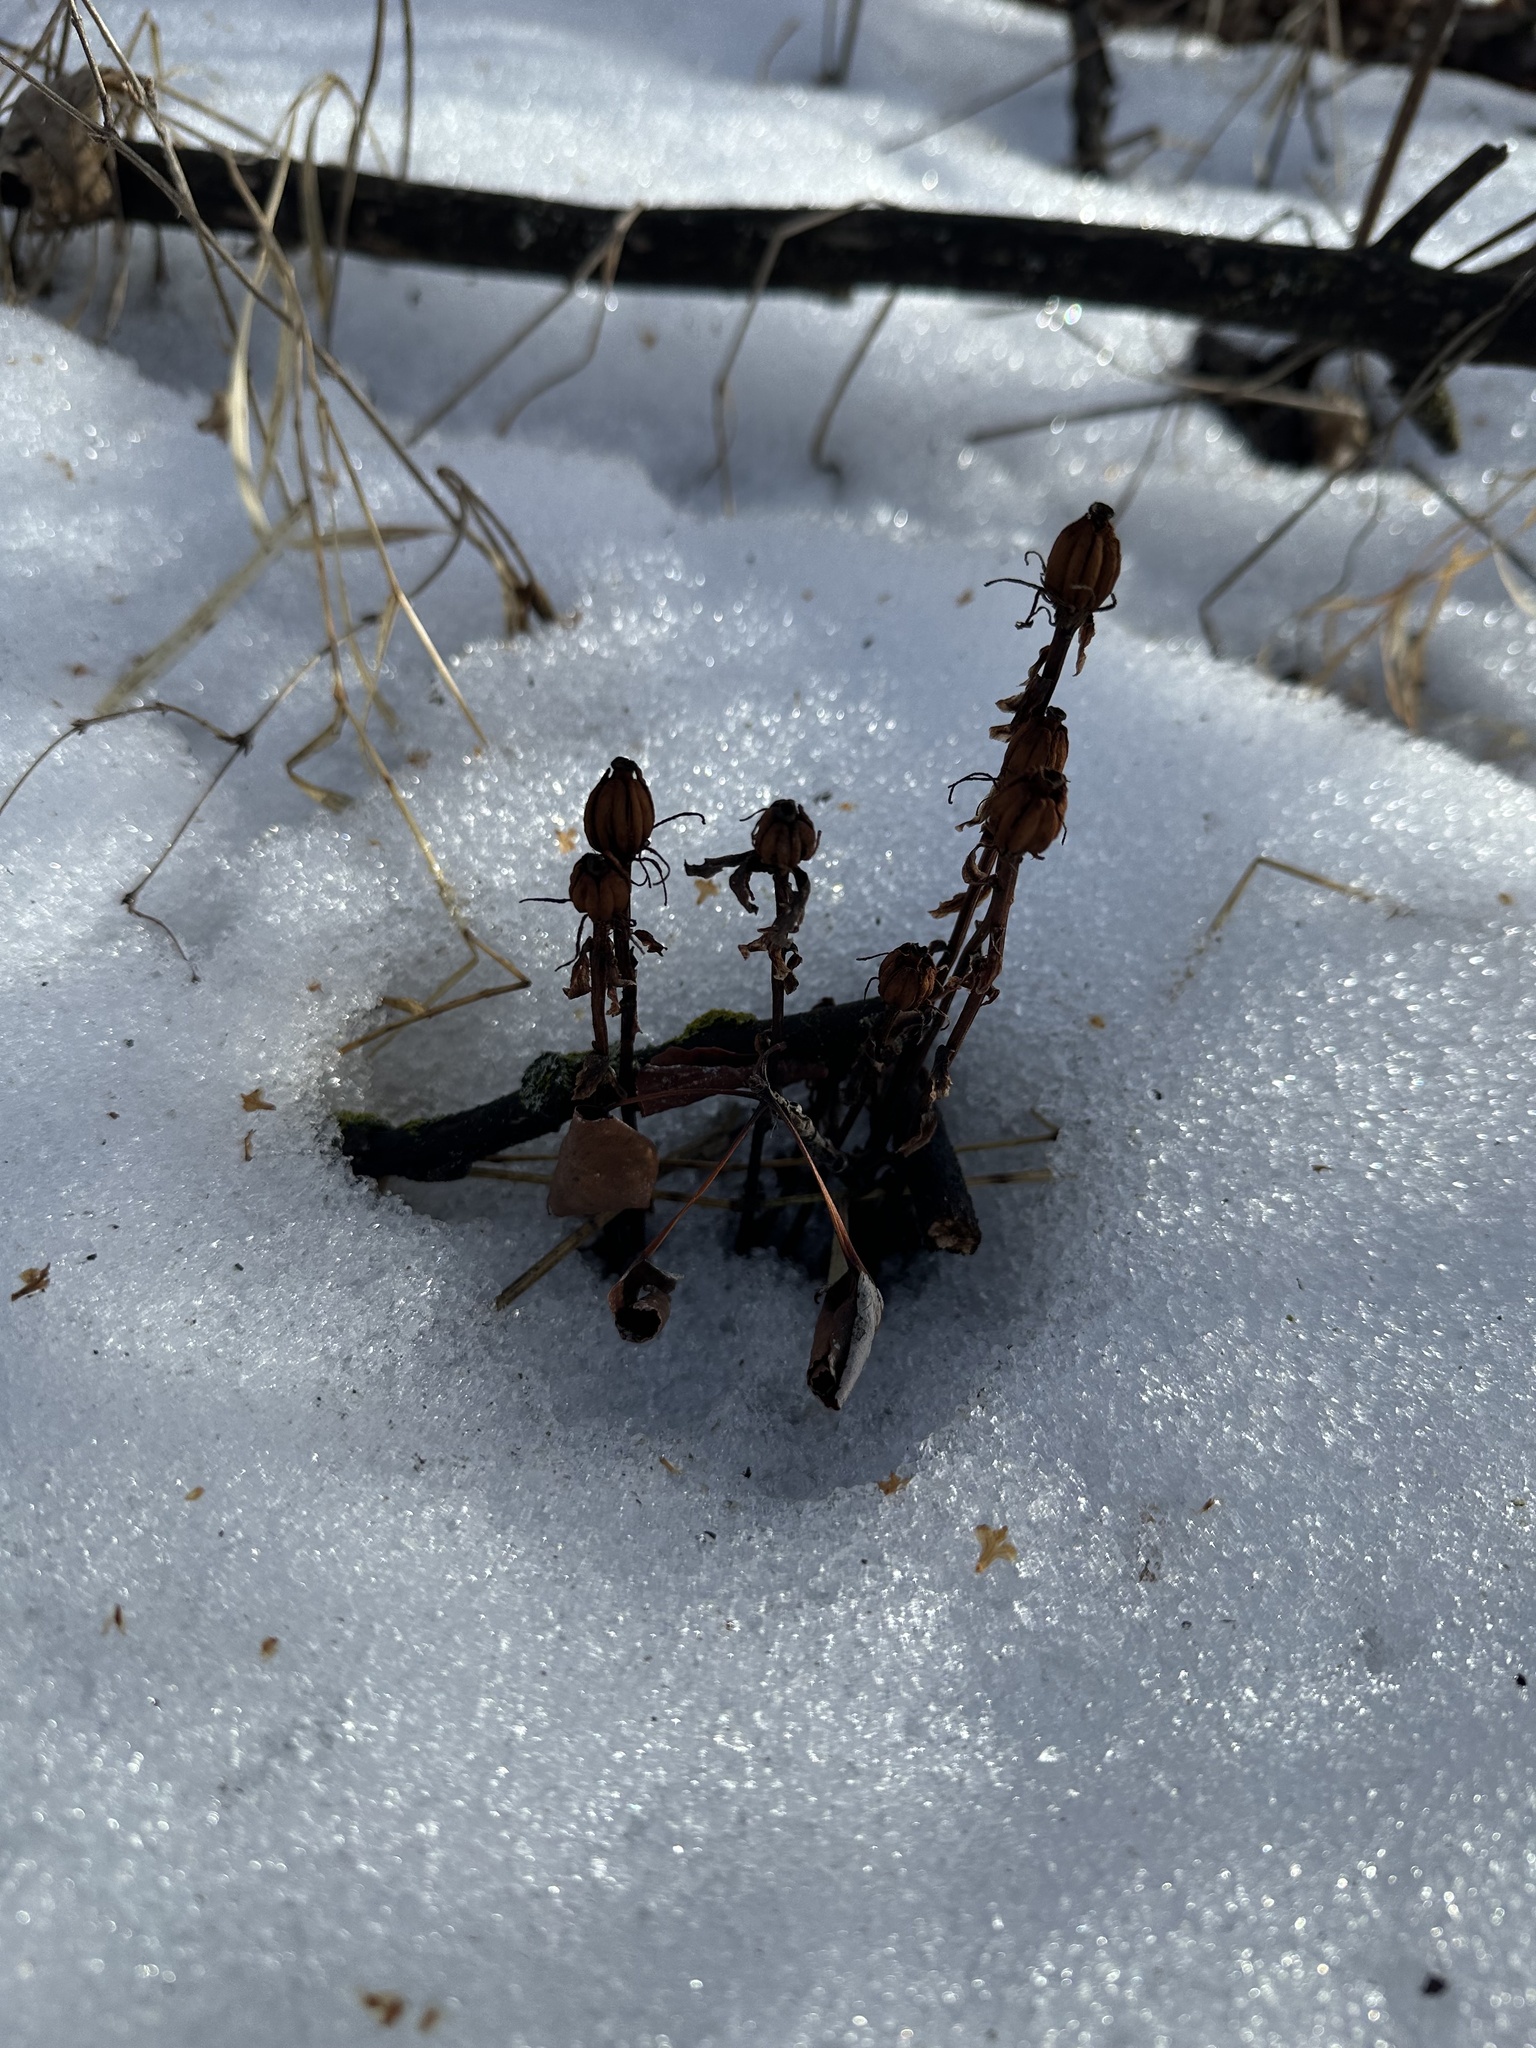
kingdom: Plantae
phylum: Tracheophyta
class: Magnoliopsida
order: Ericales
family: Ericaceae
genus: Monotropa
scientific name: Monotropa uniflora
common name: Convulsion root
